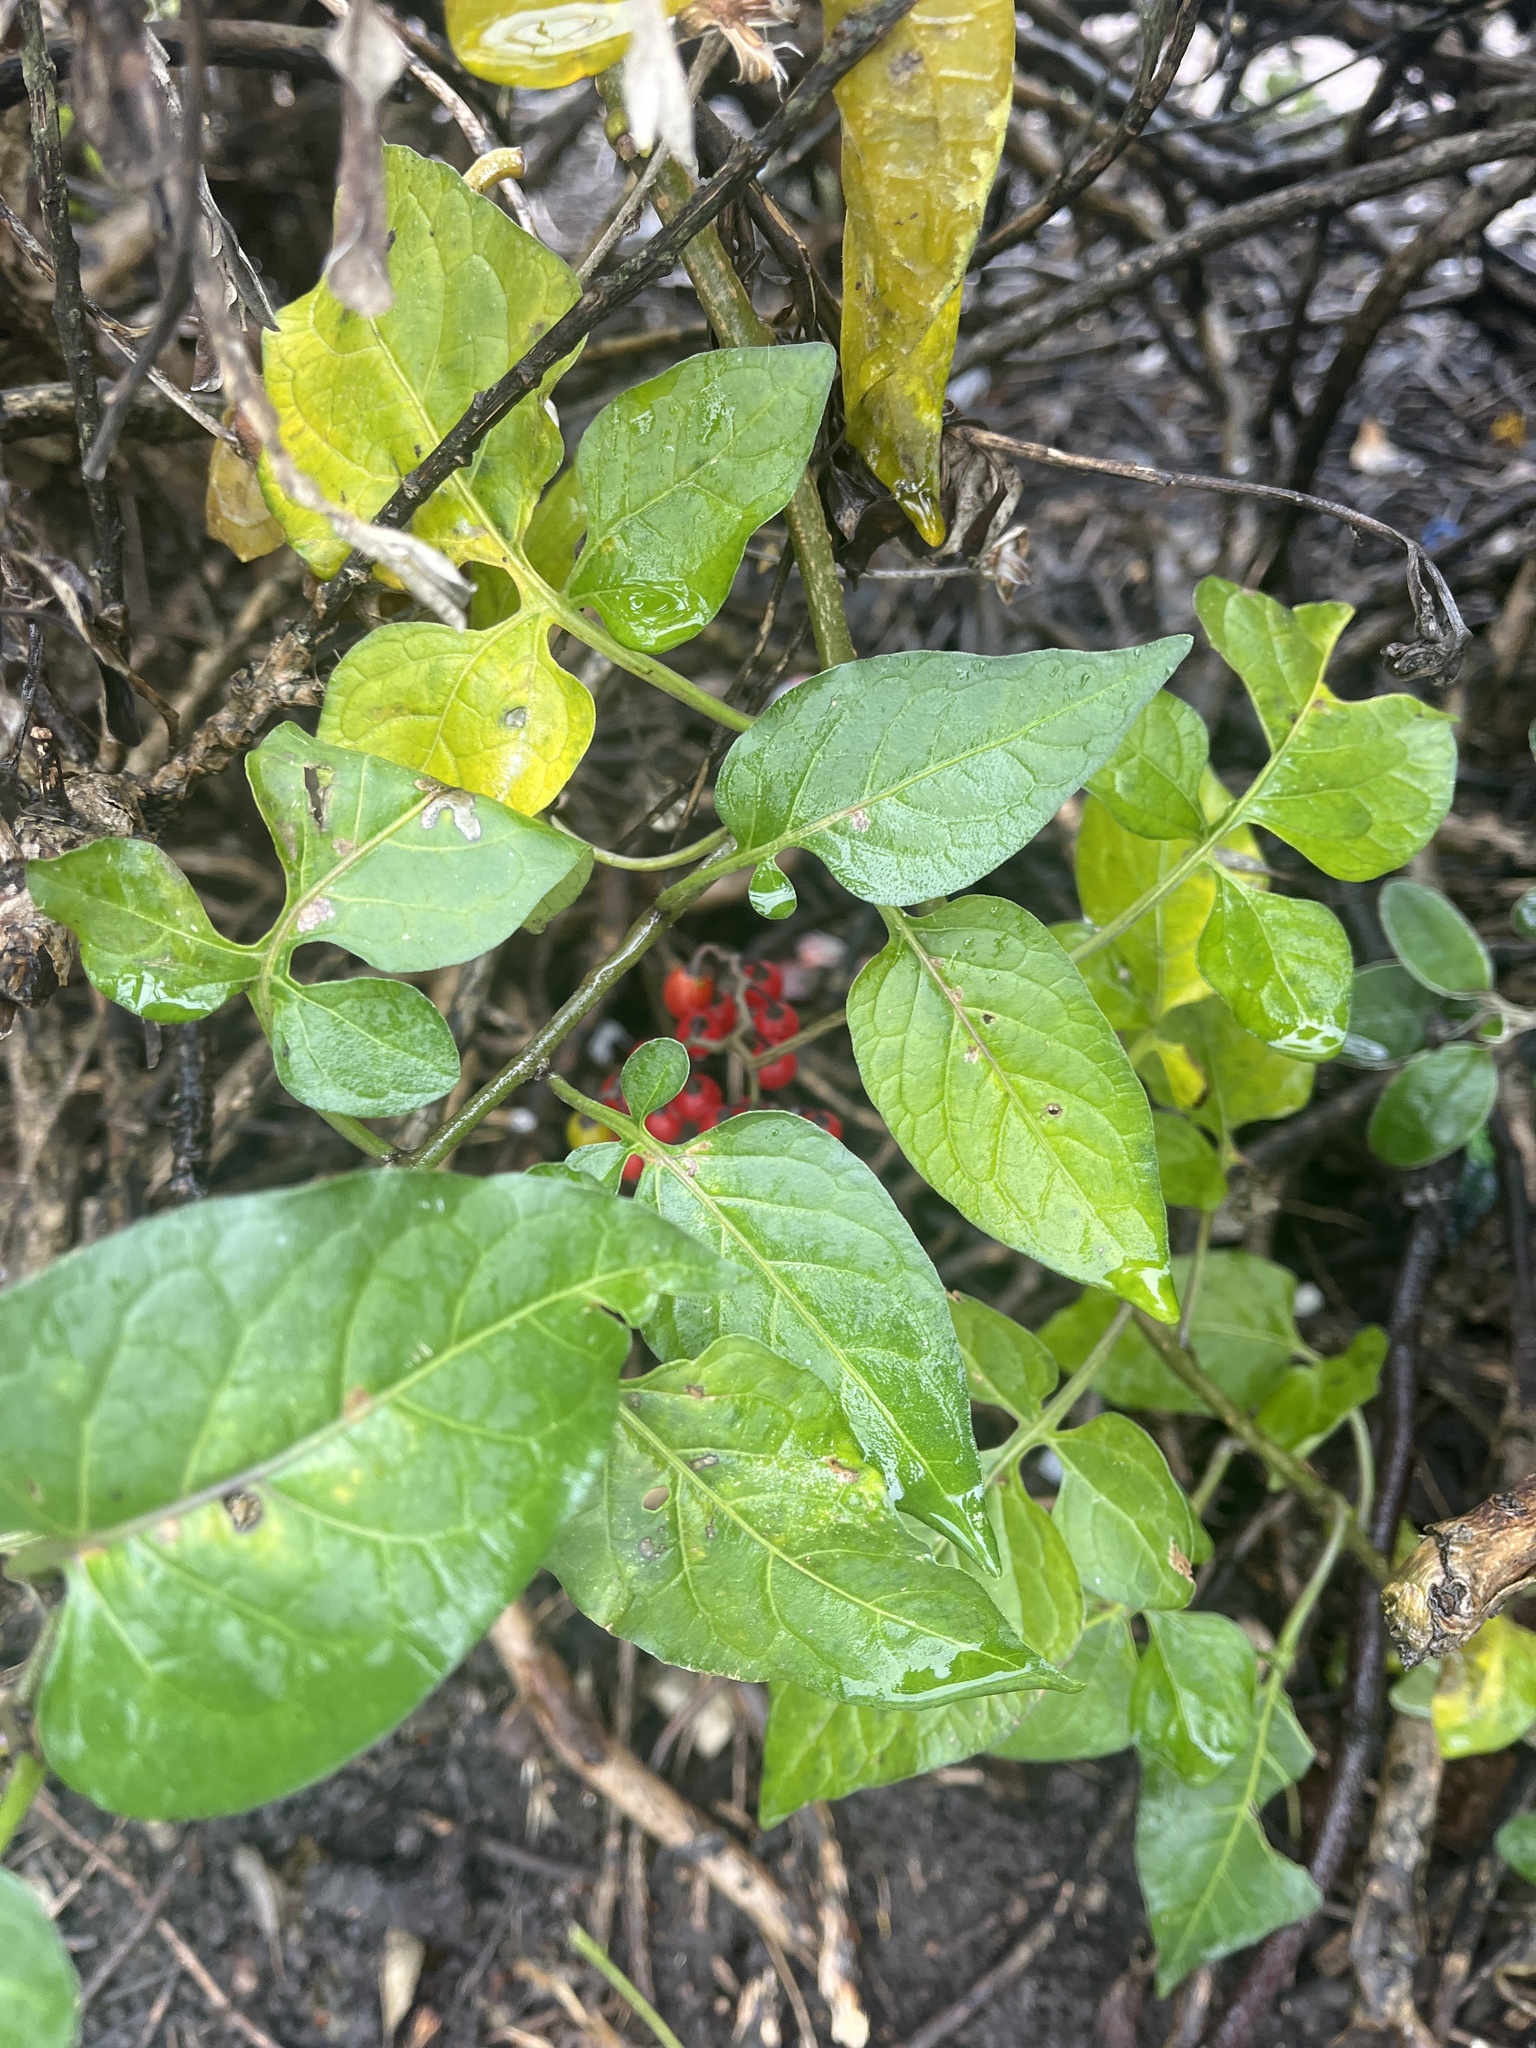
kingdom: Plantae
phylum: Tracheophyta
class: Magnoliopsida
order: Solanales
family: Solanaceae
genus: Solanum
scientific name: Solanum dulcamara
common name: Climbing nightshade
